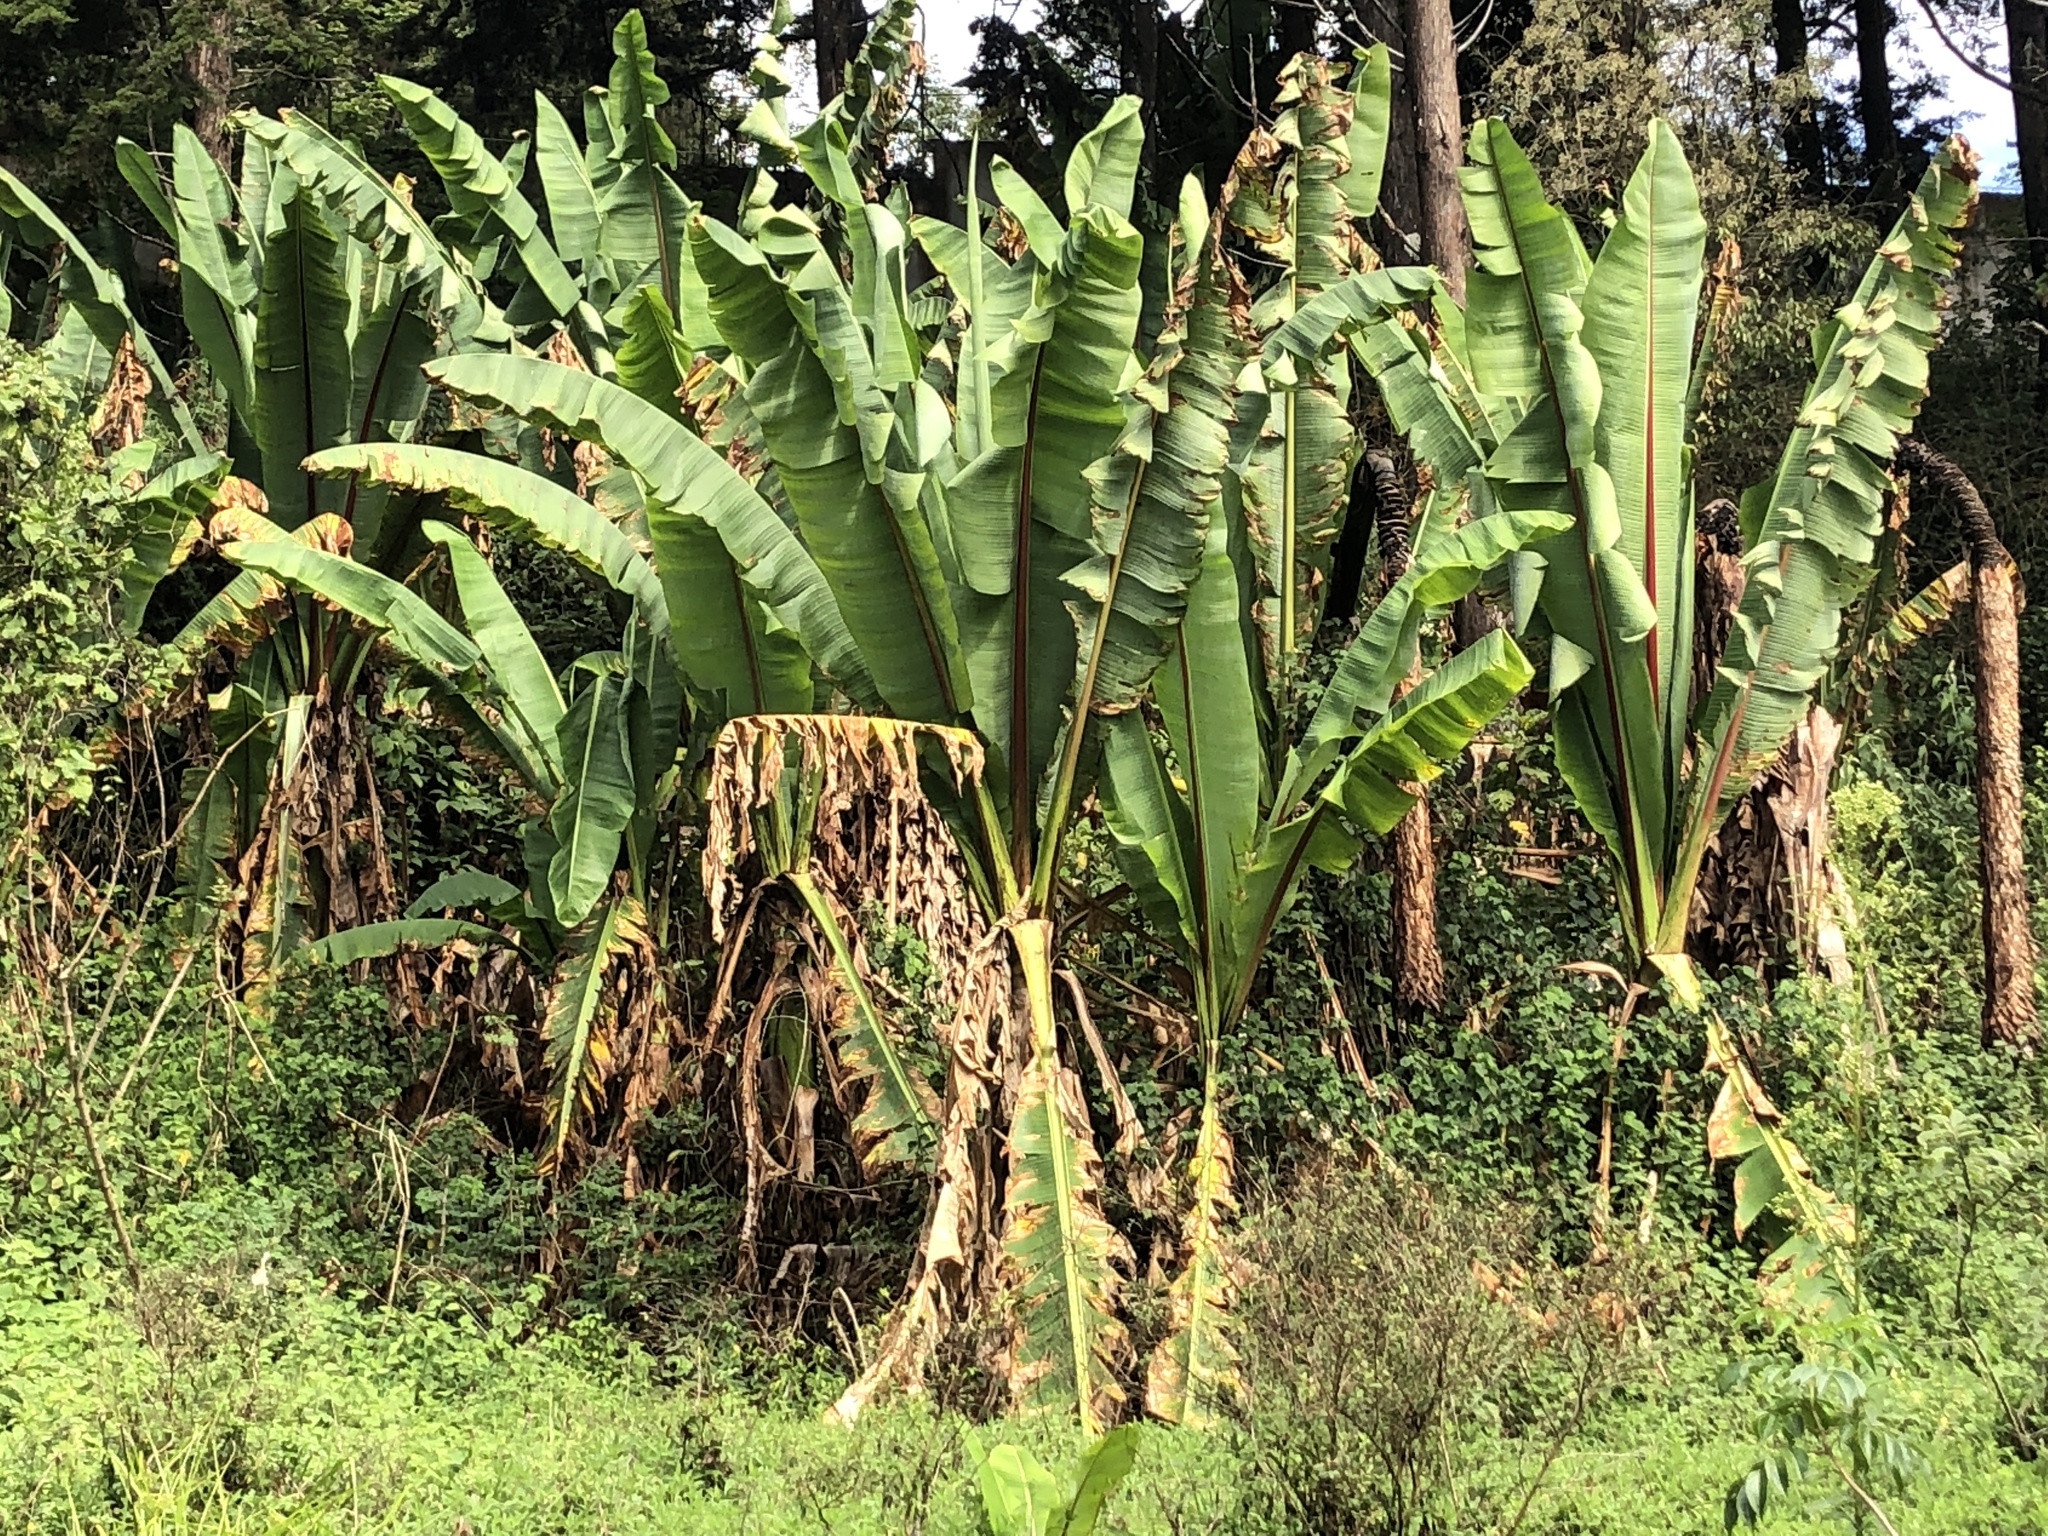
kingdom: Plantae
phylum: Tracheophyta
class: Liliopsida
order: Zingiberales
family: Musaceae
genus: Ensete
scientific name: Ensete ventricosum
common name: Abyssinian banana
